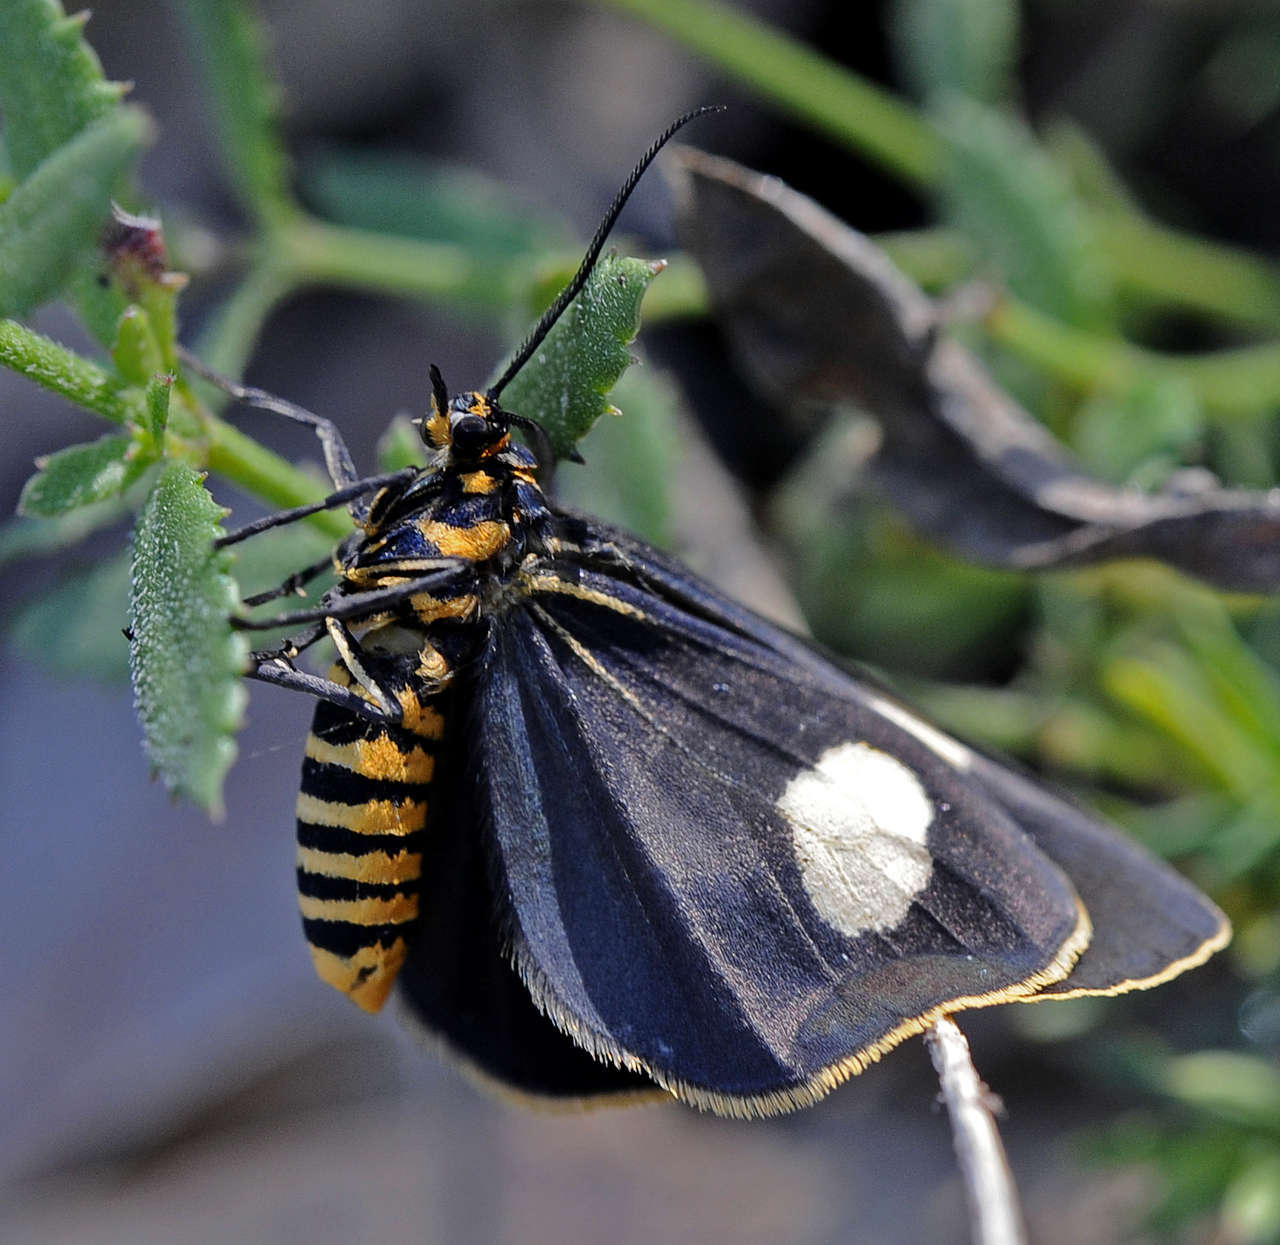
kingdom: Animalia
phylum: Arthropoda
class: Insecta
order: Lepidoptera
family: Erebidae
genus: Nyctemera
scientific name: Nyctemera amicus
